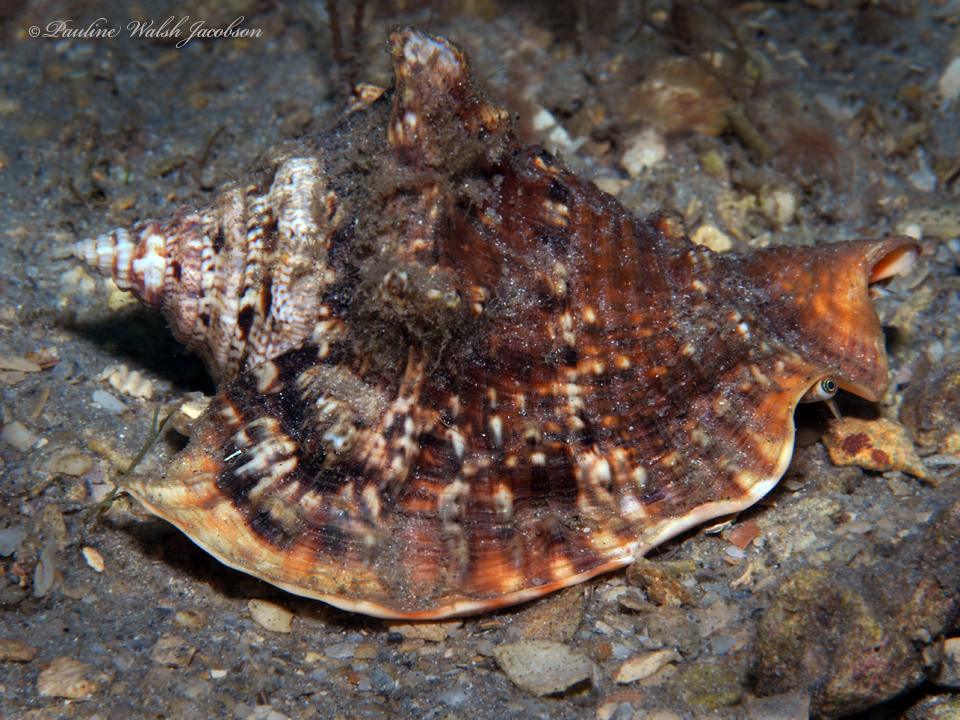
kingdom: Animalia
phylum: Mollusca
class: Gastropoda
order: Littorinimorpha
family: Strombidae
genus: Lobatus
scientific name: Lobatus raninus
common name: Hawk-wing conch
